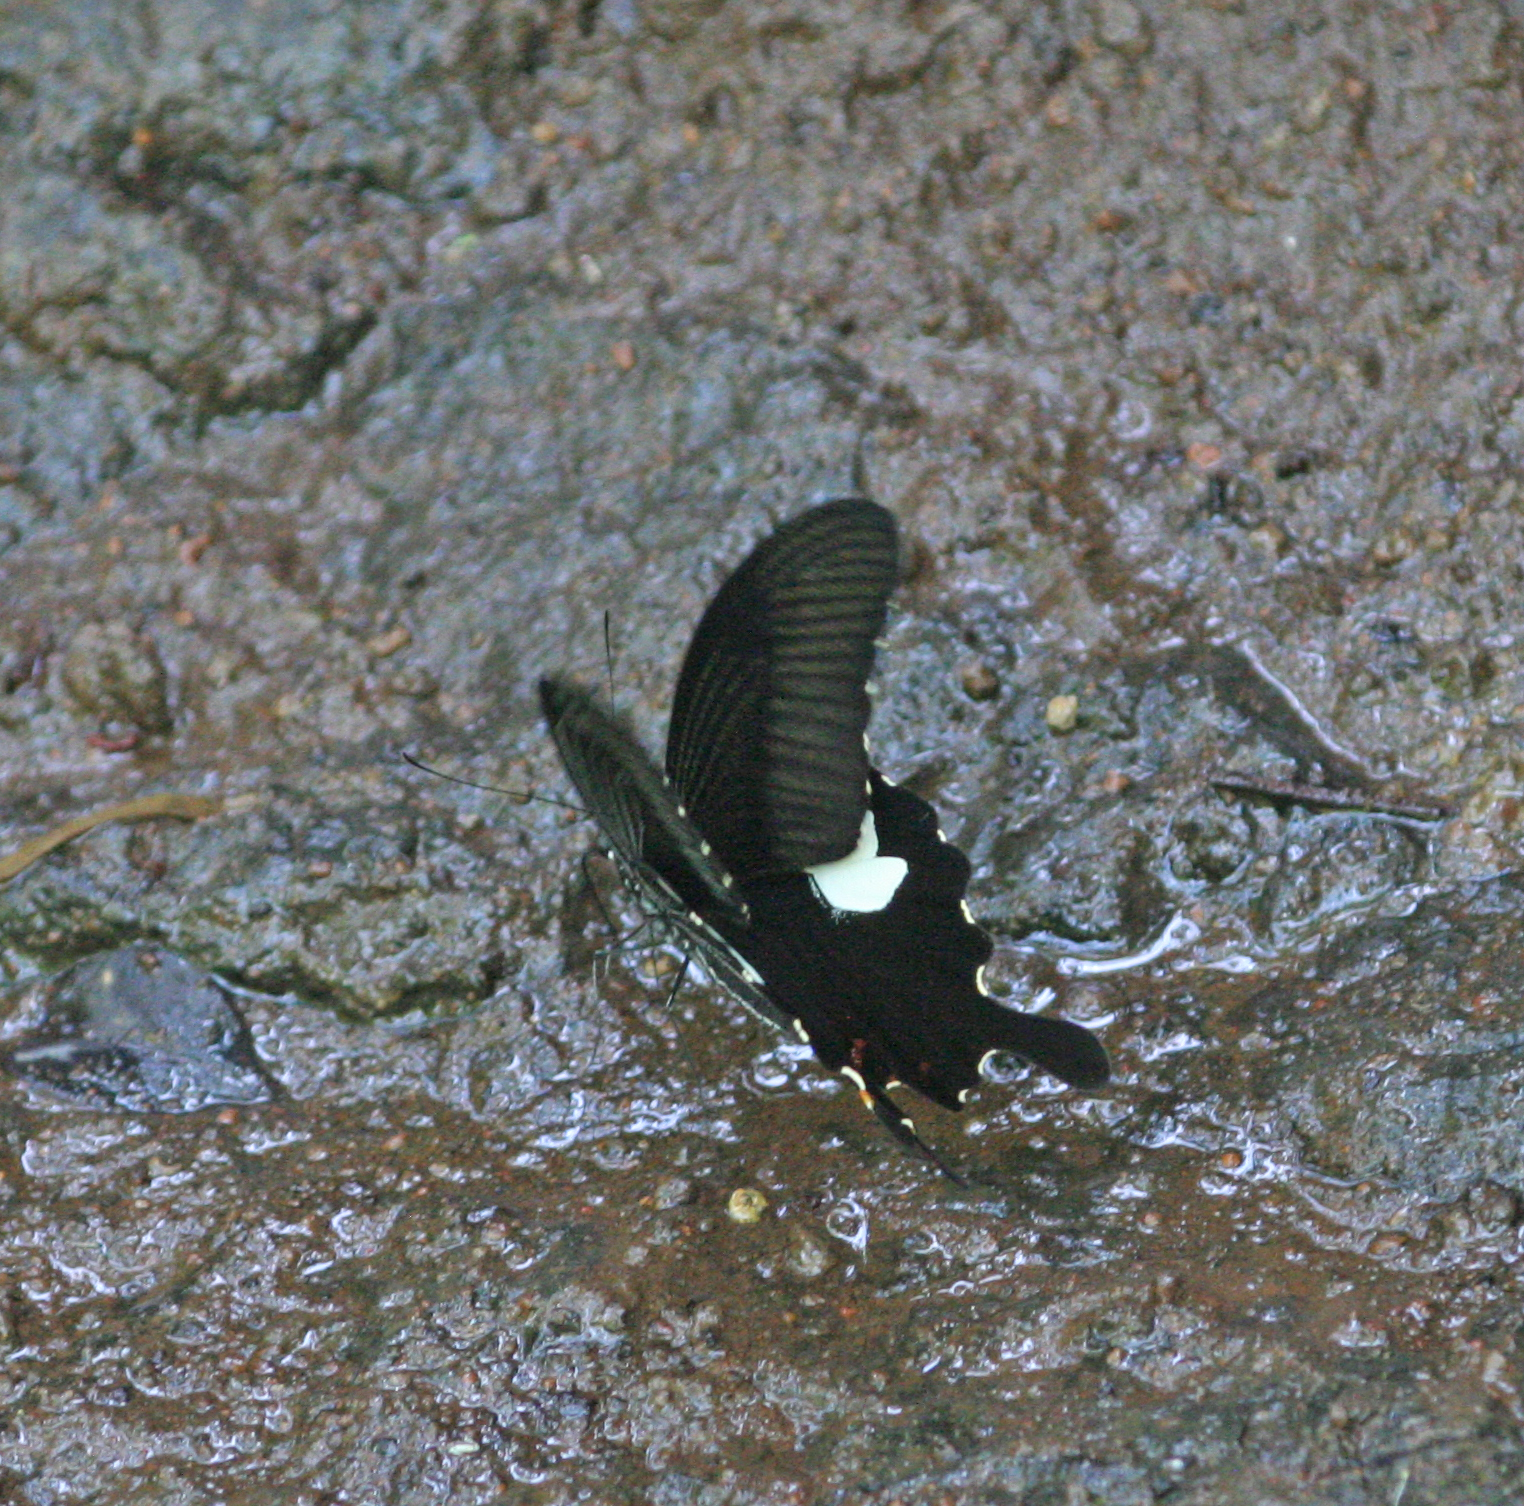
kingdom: Animalia
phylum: Arthropoda
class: Insecta
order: Lepidoptera
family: Papilionidae
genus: Papilio
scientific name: Papilio helenus
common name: Red helen
